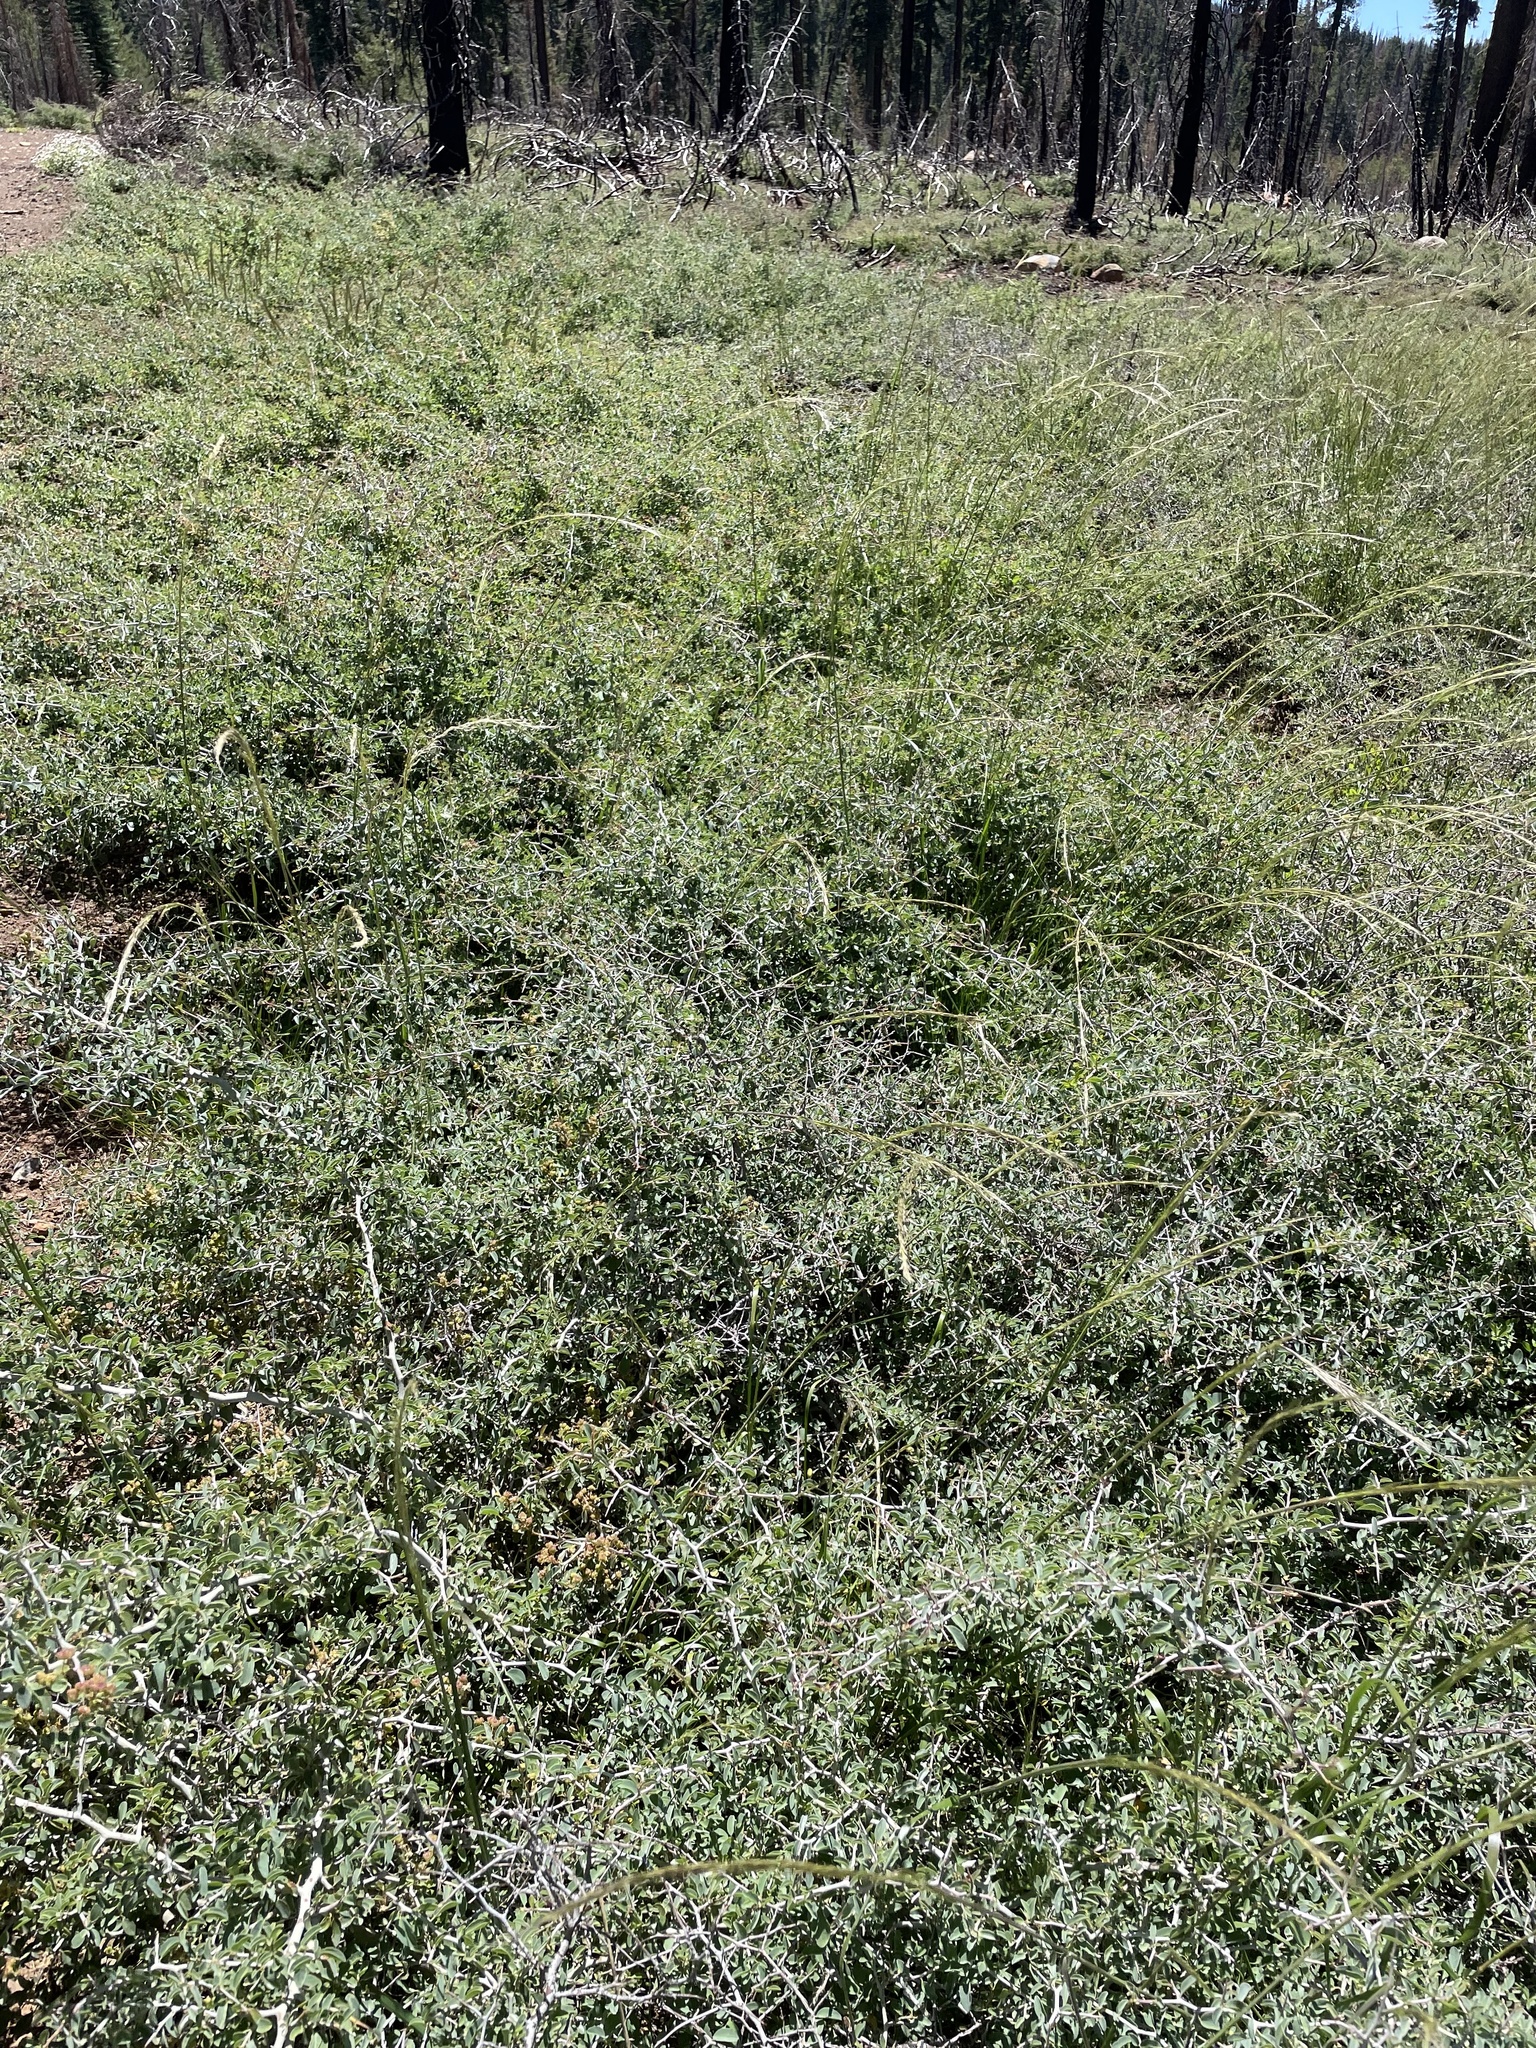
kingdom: Plantae
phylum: Tracheophyta
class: Magnoliopsida
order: Rosales
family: Rhamnaceae
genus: Ceanothus
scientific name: Ceanothus cordulatus
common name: Mountain whitethorn
